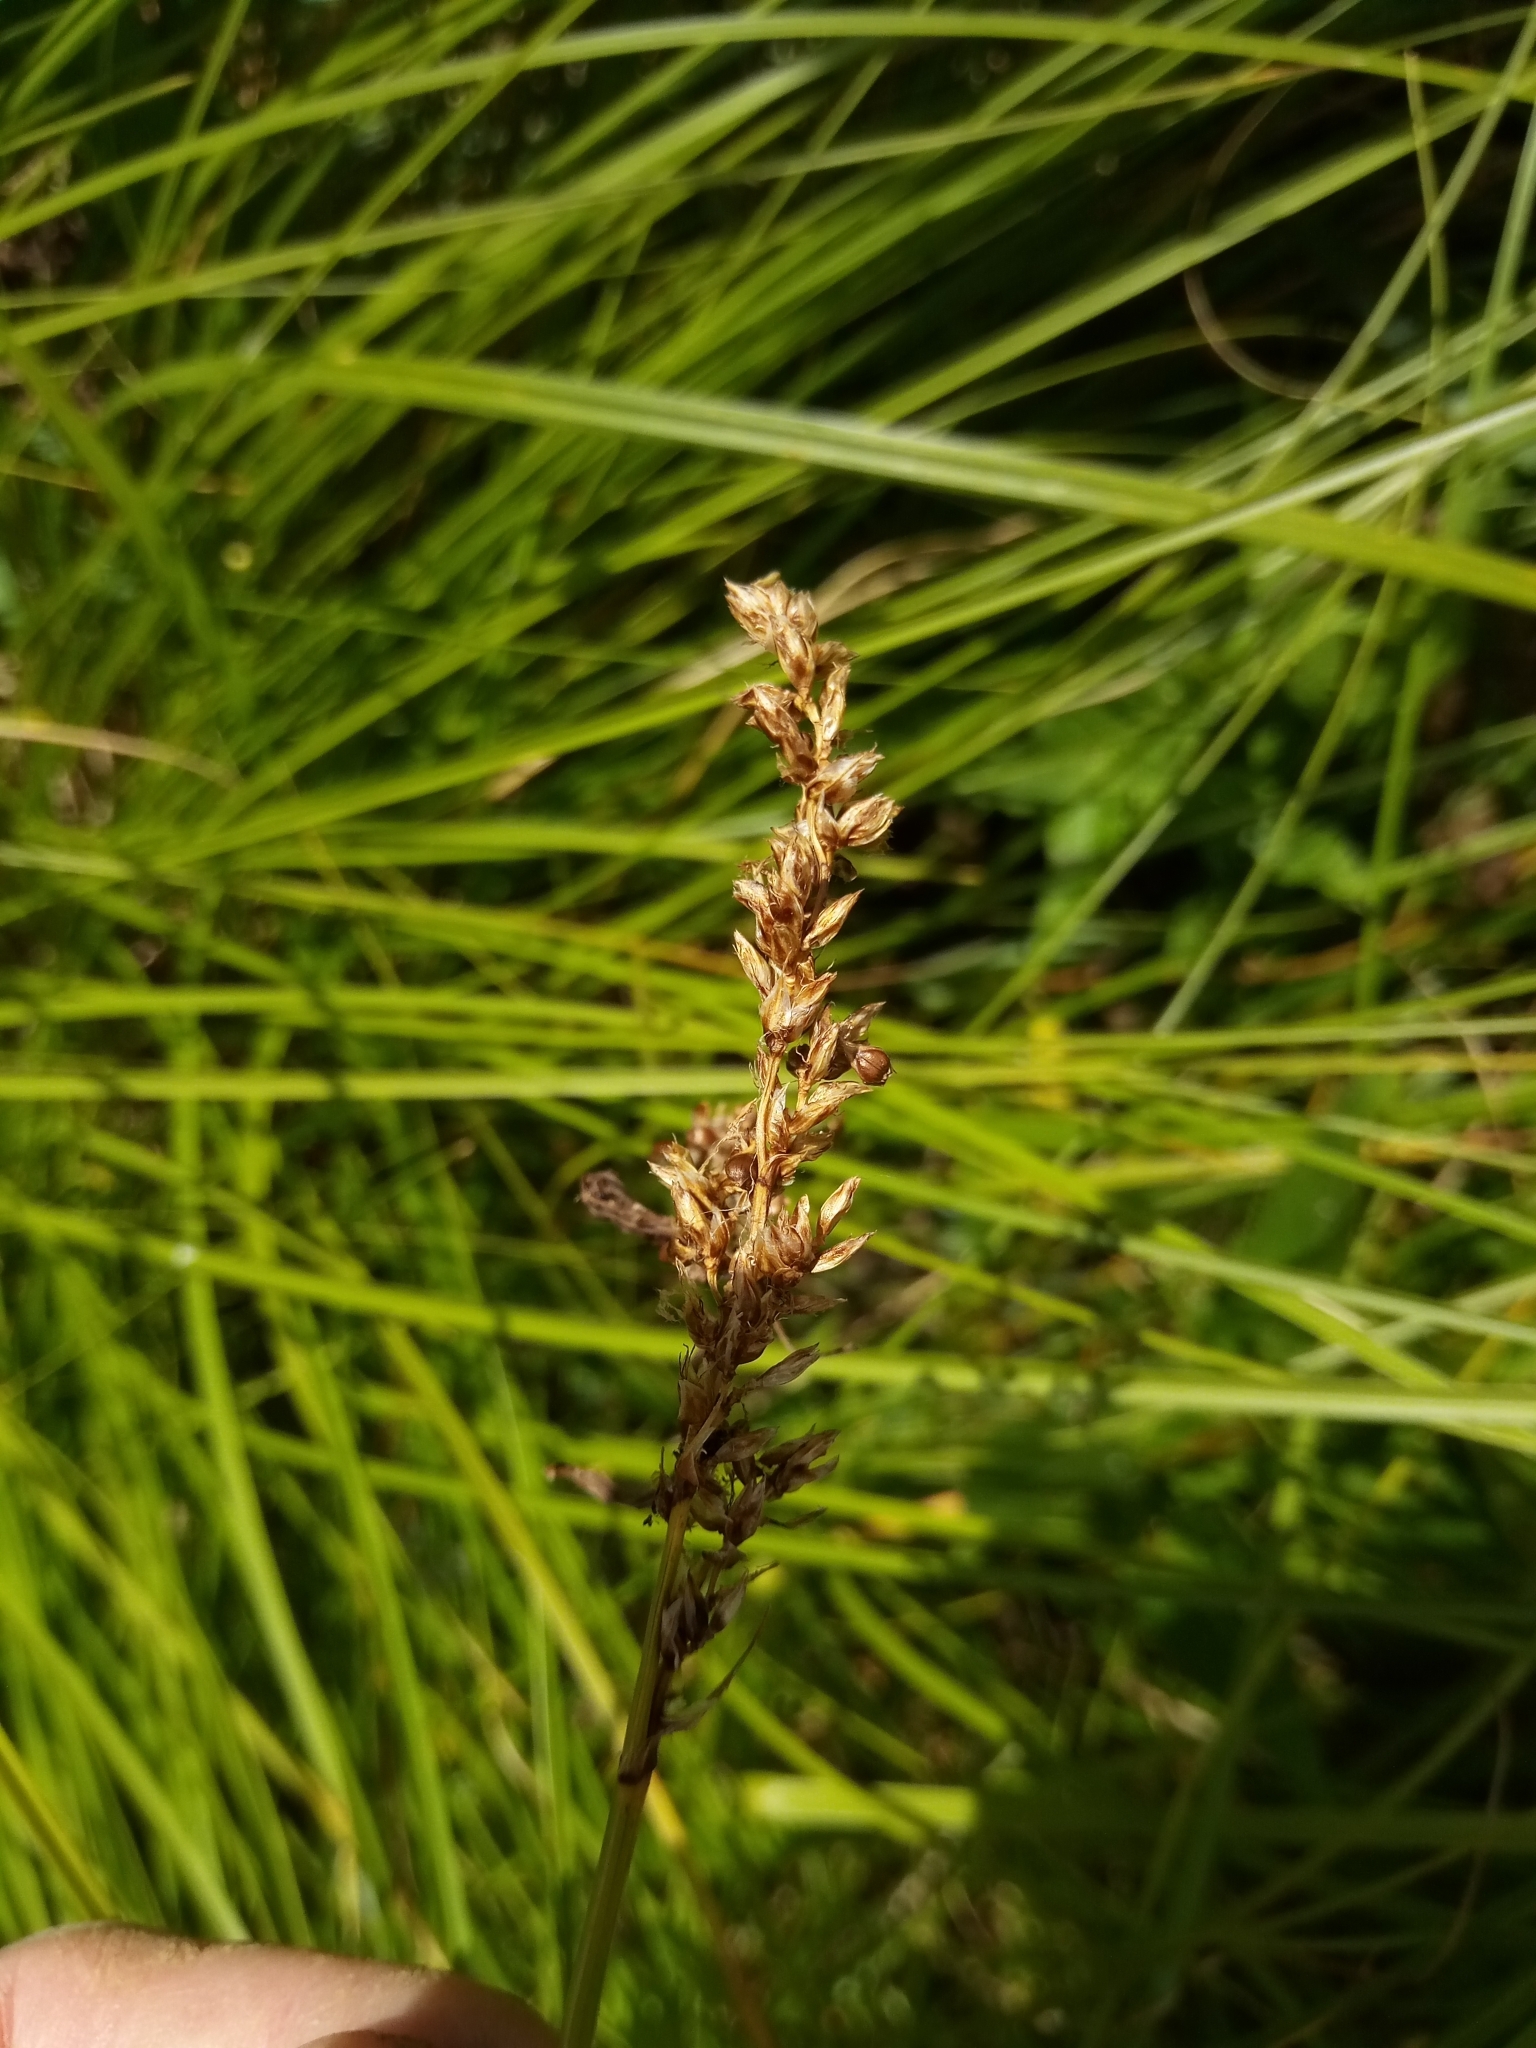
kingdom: Plantae
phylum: Tracheophyta
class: Liliopsida
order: Poales
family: Cyperaceae
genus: Carex
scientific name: Carex paniculata
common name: Greater tussock-sedge
